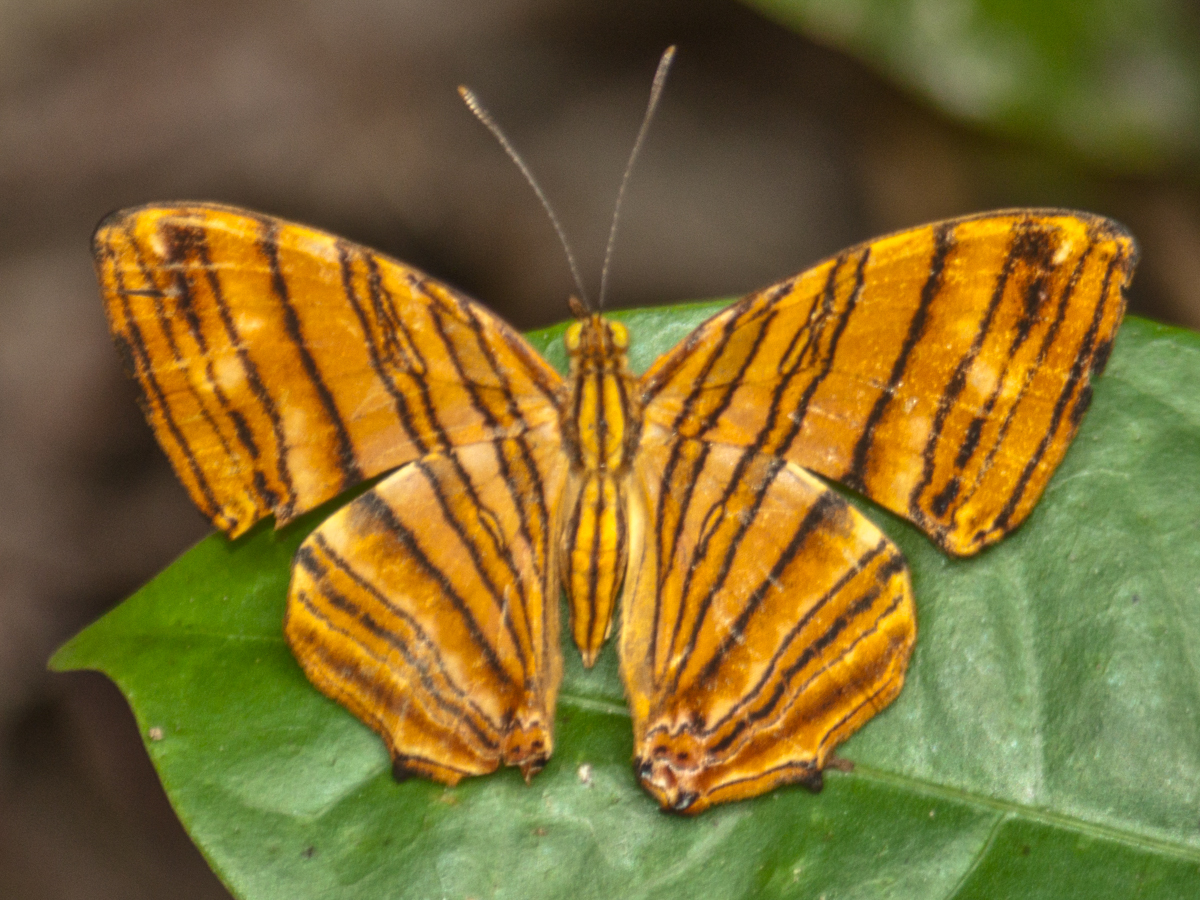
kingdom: Animalia
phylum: Arthropoda
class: Insecta
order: Lepidoptera
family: Nymphalidae
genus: Chersonesia
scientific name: Chersonesia risa
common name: Common maplet
